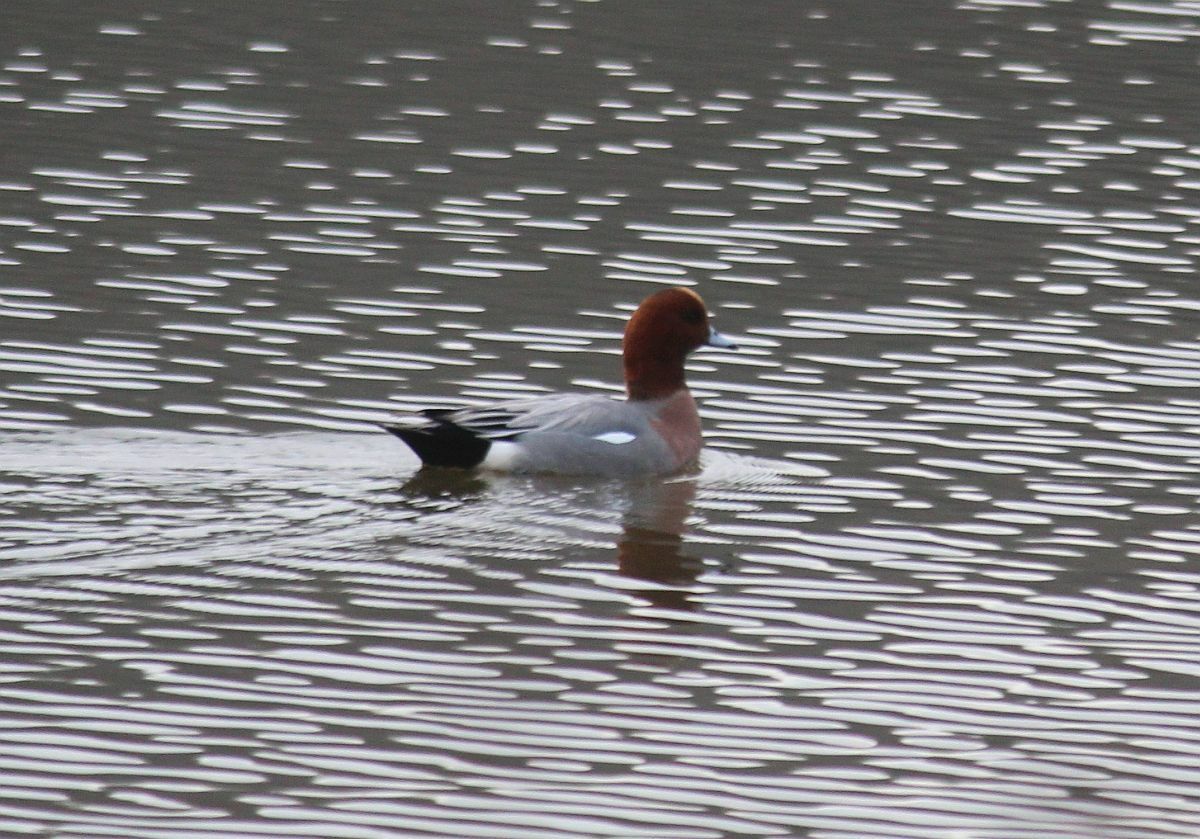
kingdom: Animalia
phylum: Chordata
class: Aves
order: Anseriformes
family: Anatidae
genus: Mareca
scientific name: Mareca penelope
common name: Eurasian wigeon
